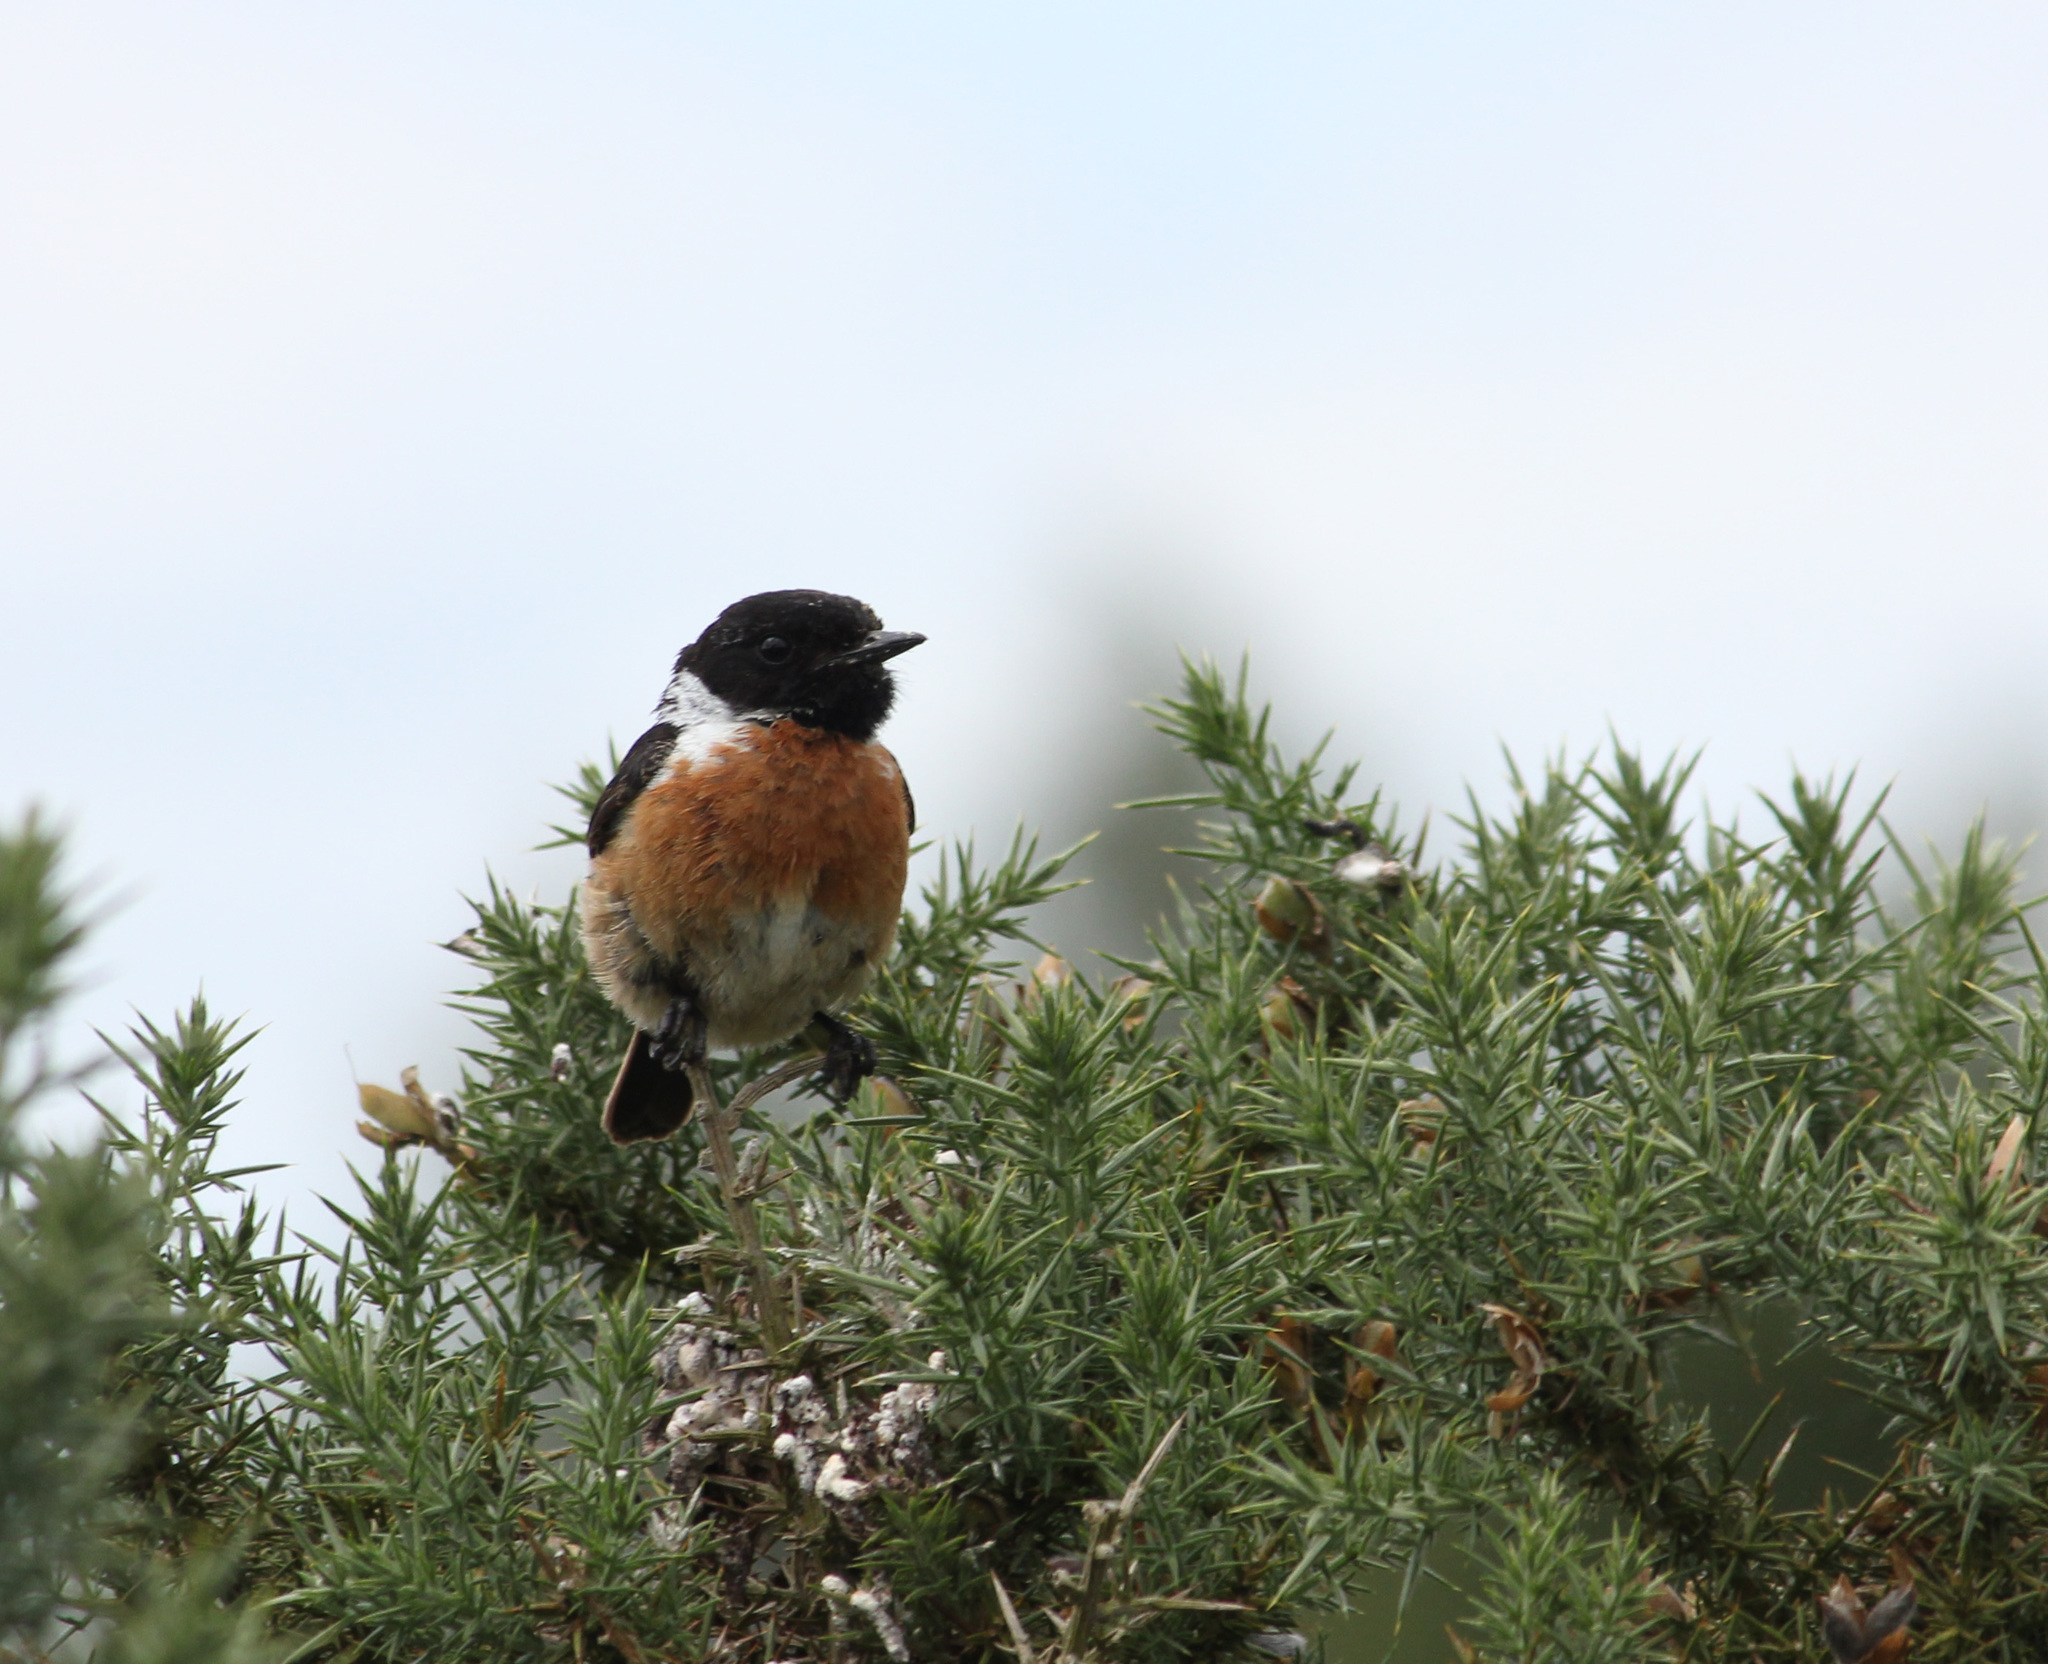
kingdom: Animalia
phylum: Chordata
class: Aves
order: Passeriformes
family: Muscicapidae
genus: Saxicola
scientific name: Saxicola rubicola
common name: European stonechat
